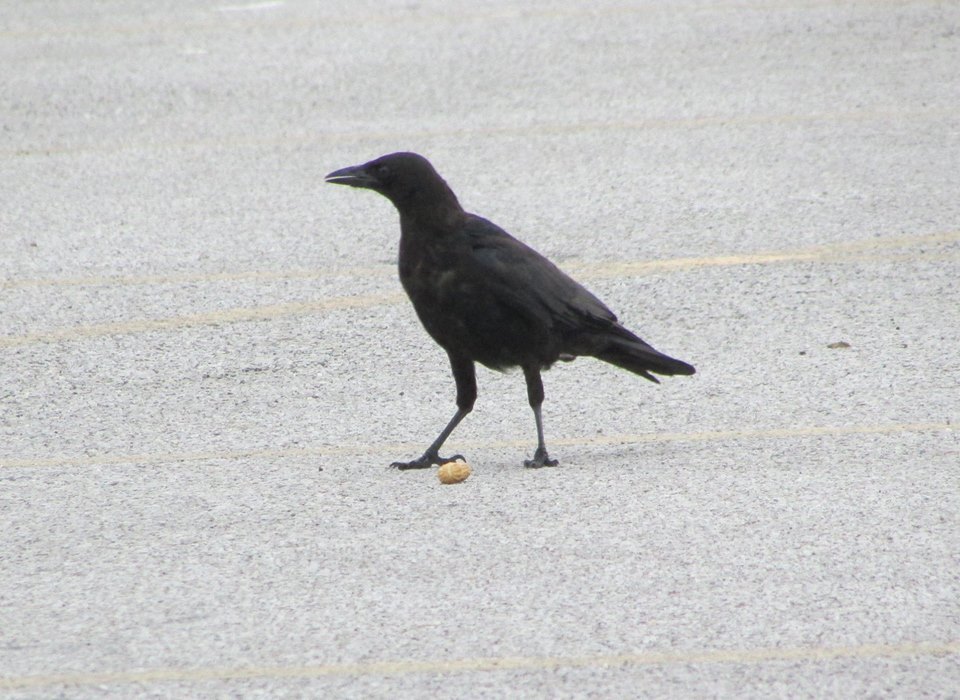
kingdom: Animalia
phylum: Chordata
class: Aves
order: Passeriformes
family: Corvidae
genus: Corvus
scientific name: Corvus brachyrhynchos
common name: American crow
